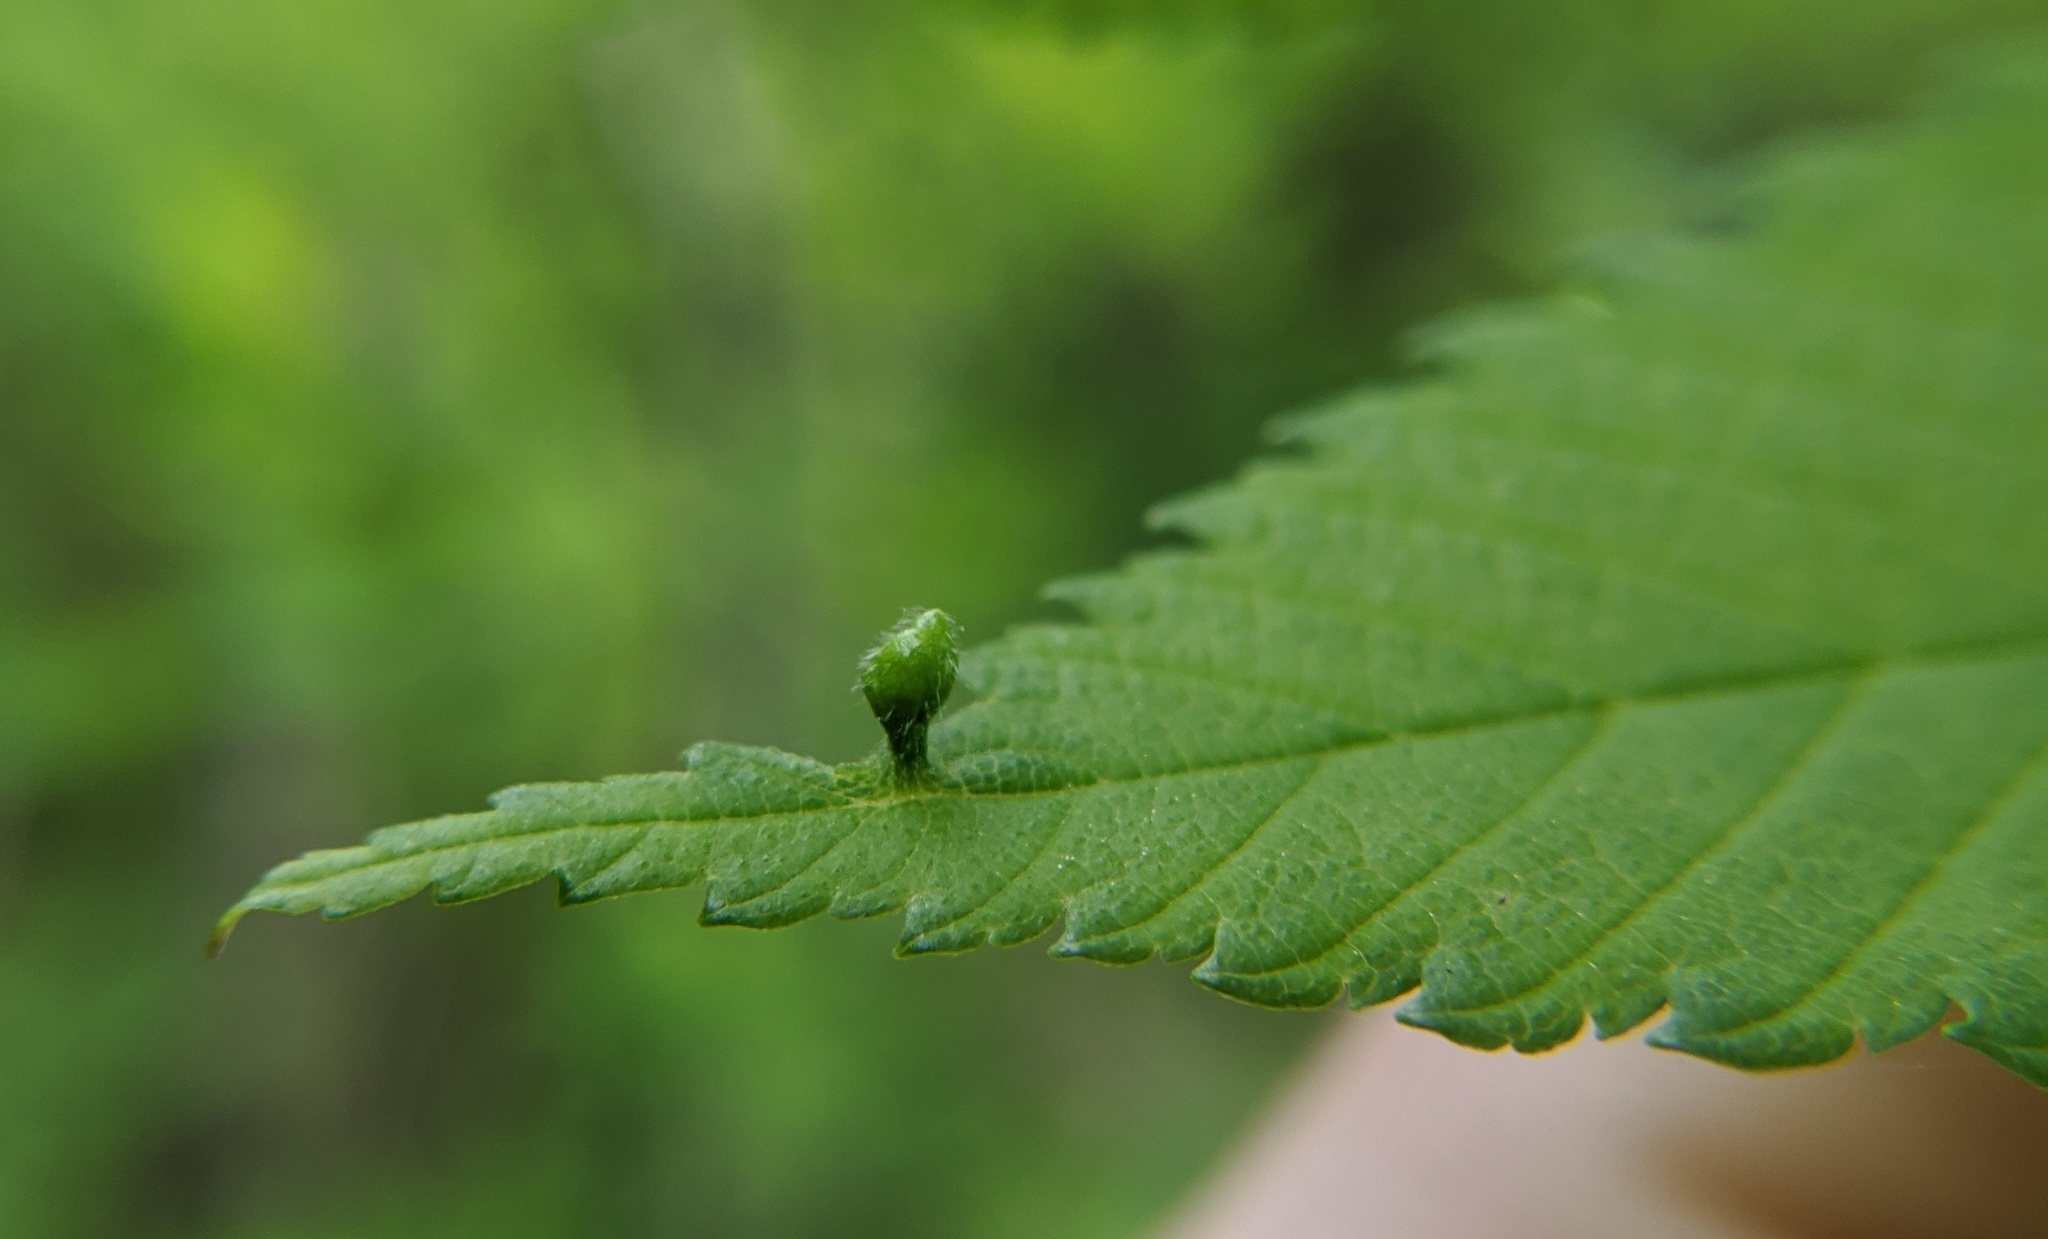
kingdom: Animalia
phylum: Arthropoda
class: Arachnida
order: Trombidiformes
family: Eriophyidae
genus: Aceria
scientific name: Aceria
